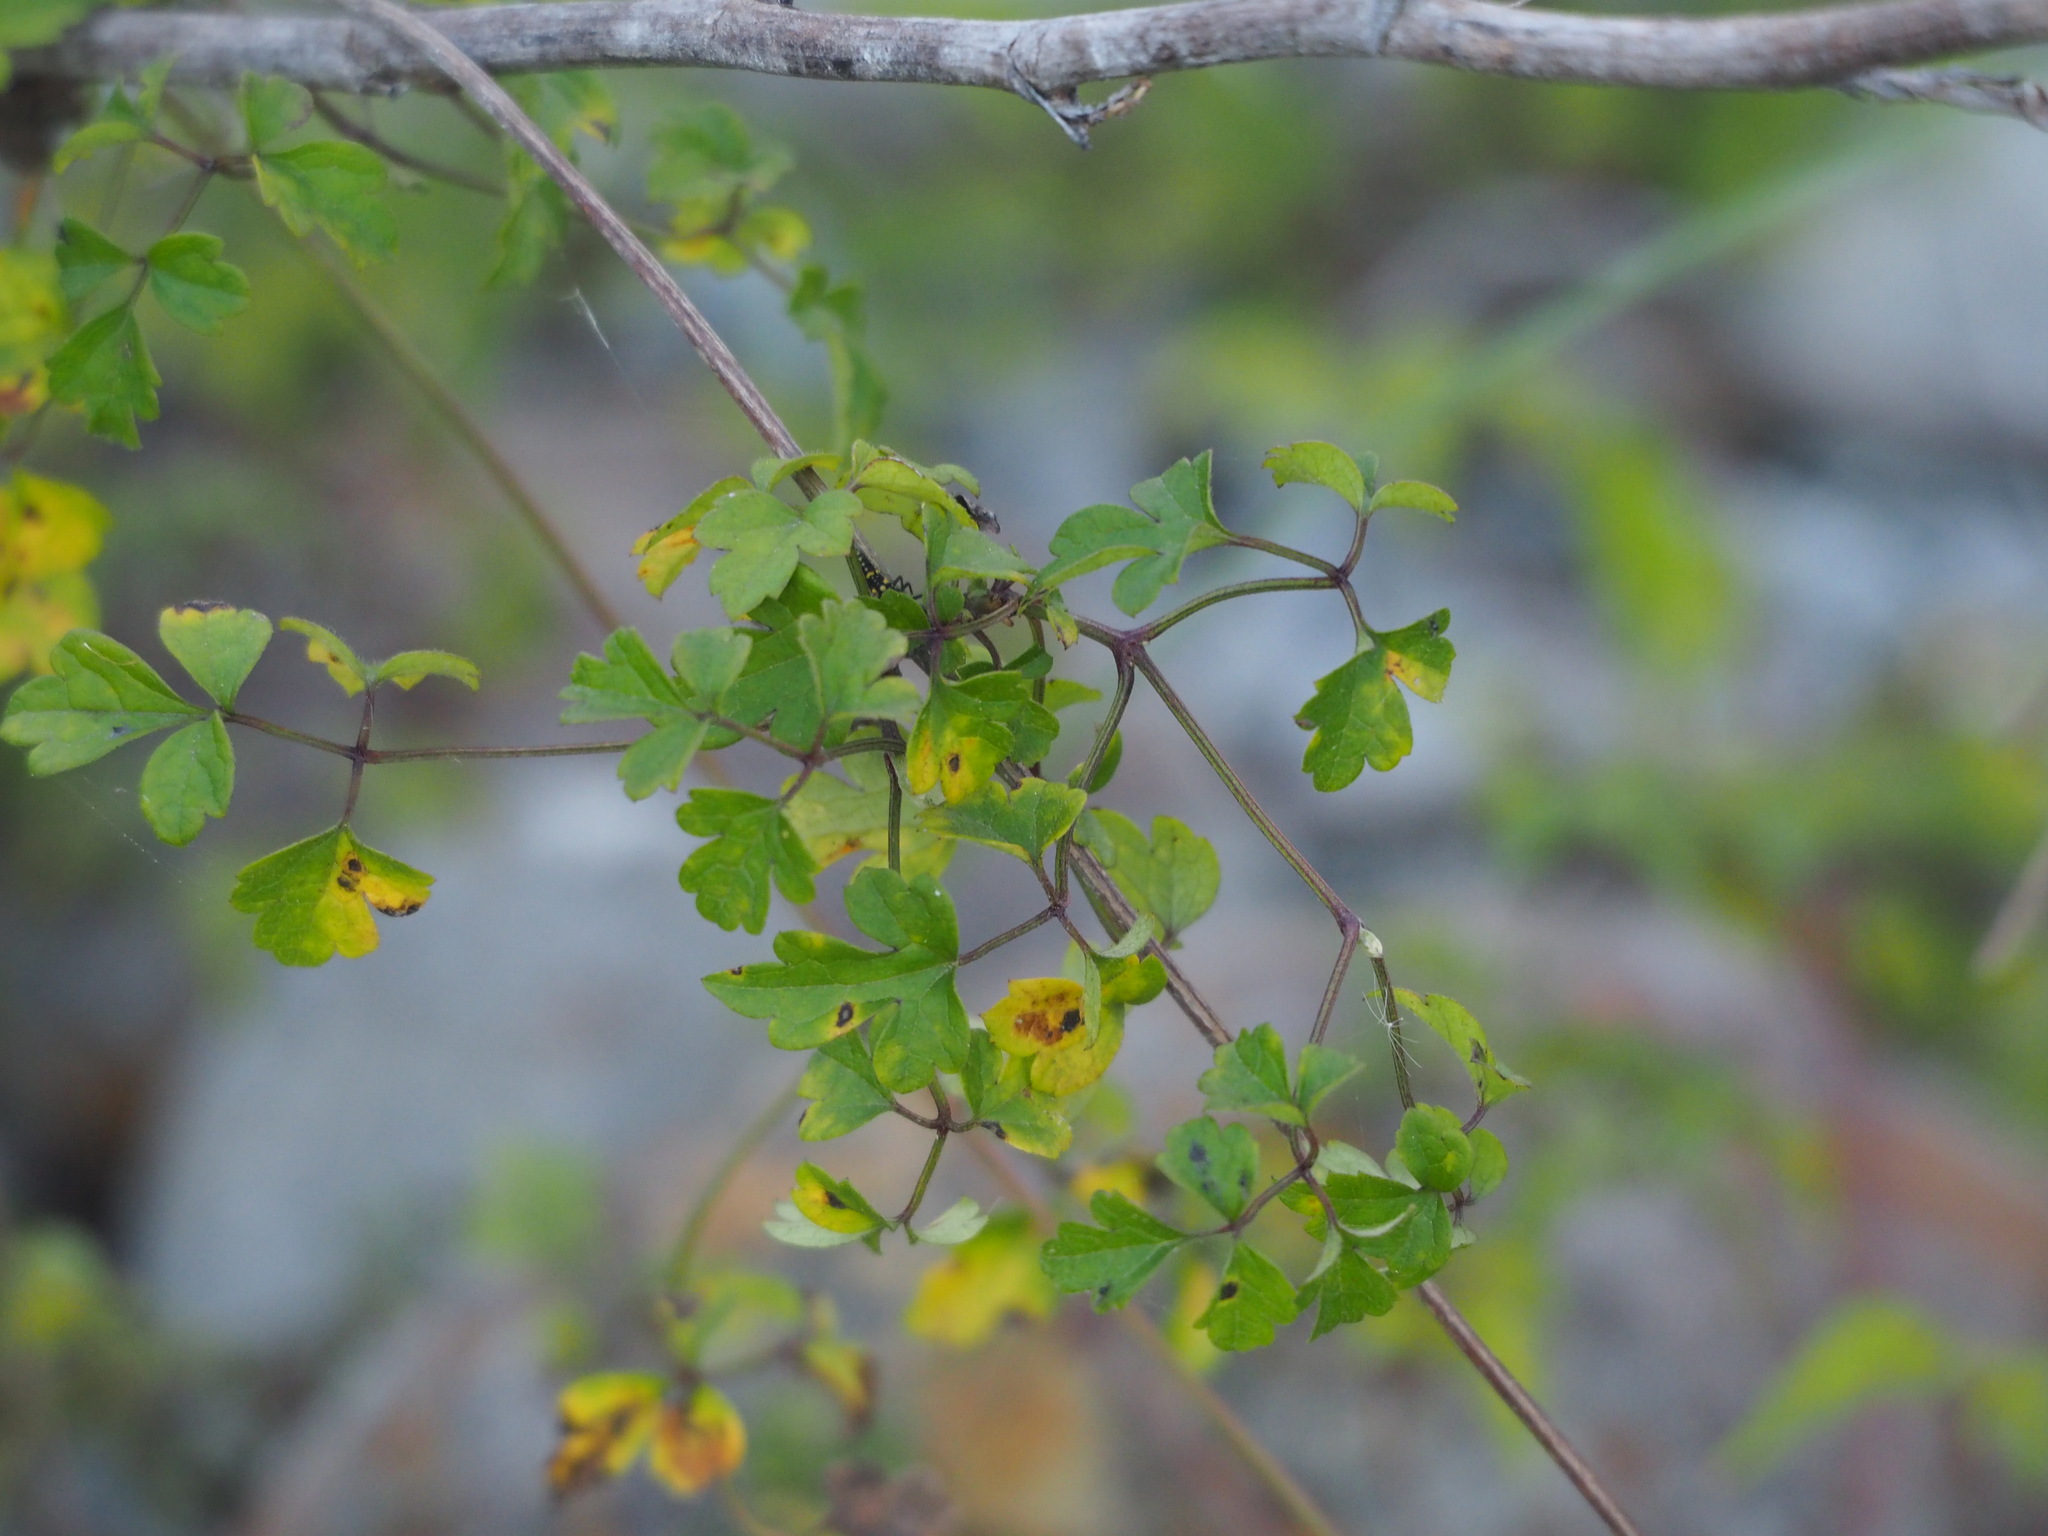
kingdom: Plantae
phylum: Tracheophyta
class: Magnoliopsida
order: Ranunculales
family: Ranunculaceae
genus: Clematis
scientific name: Clematis grata
